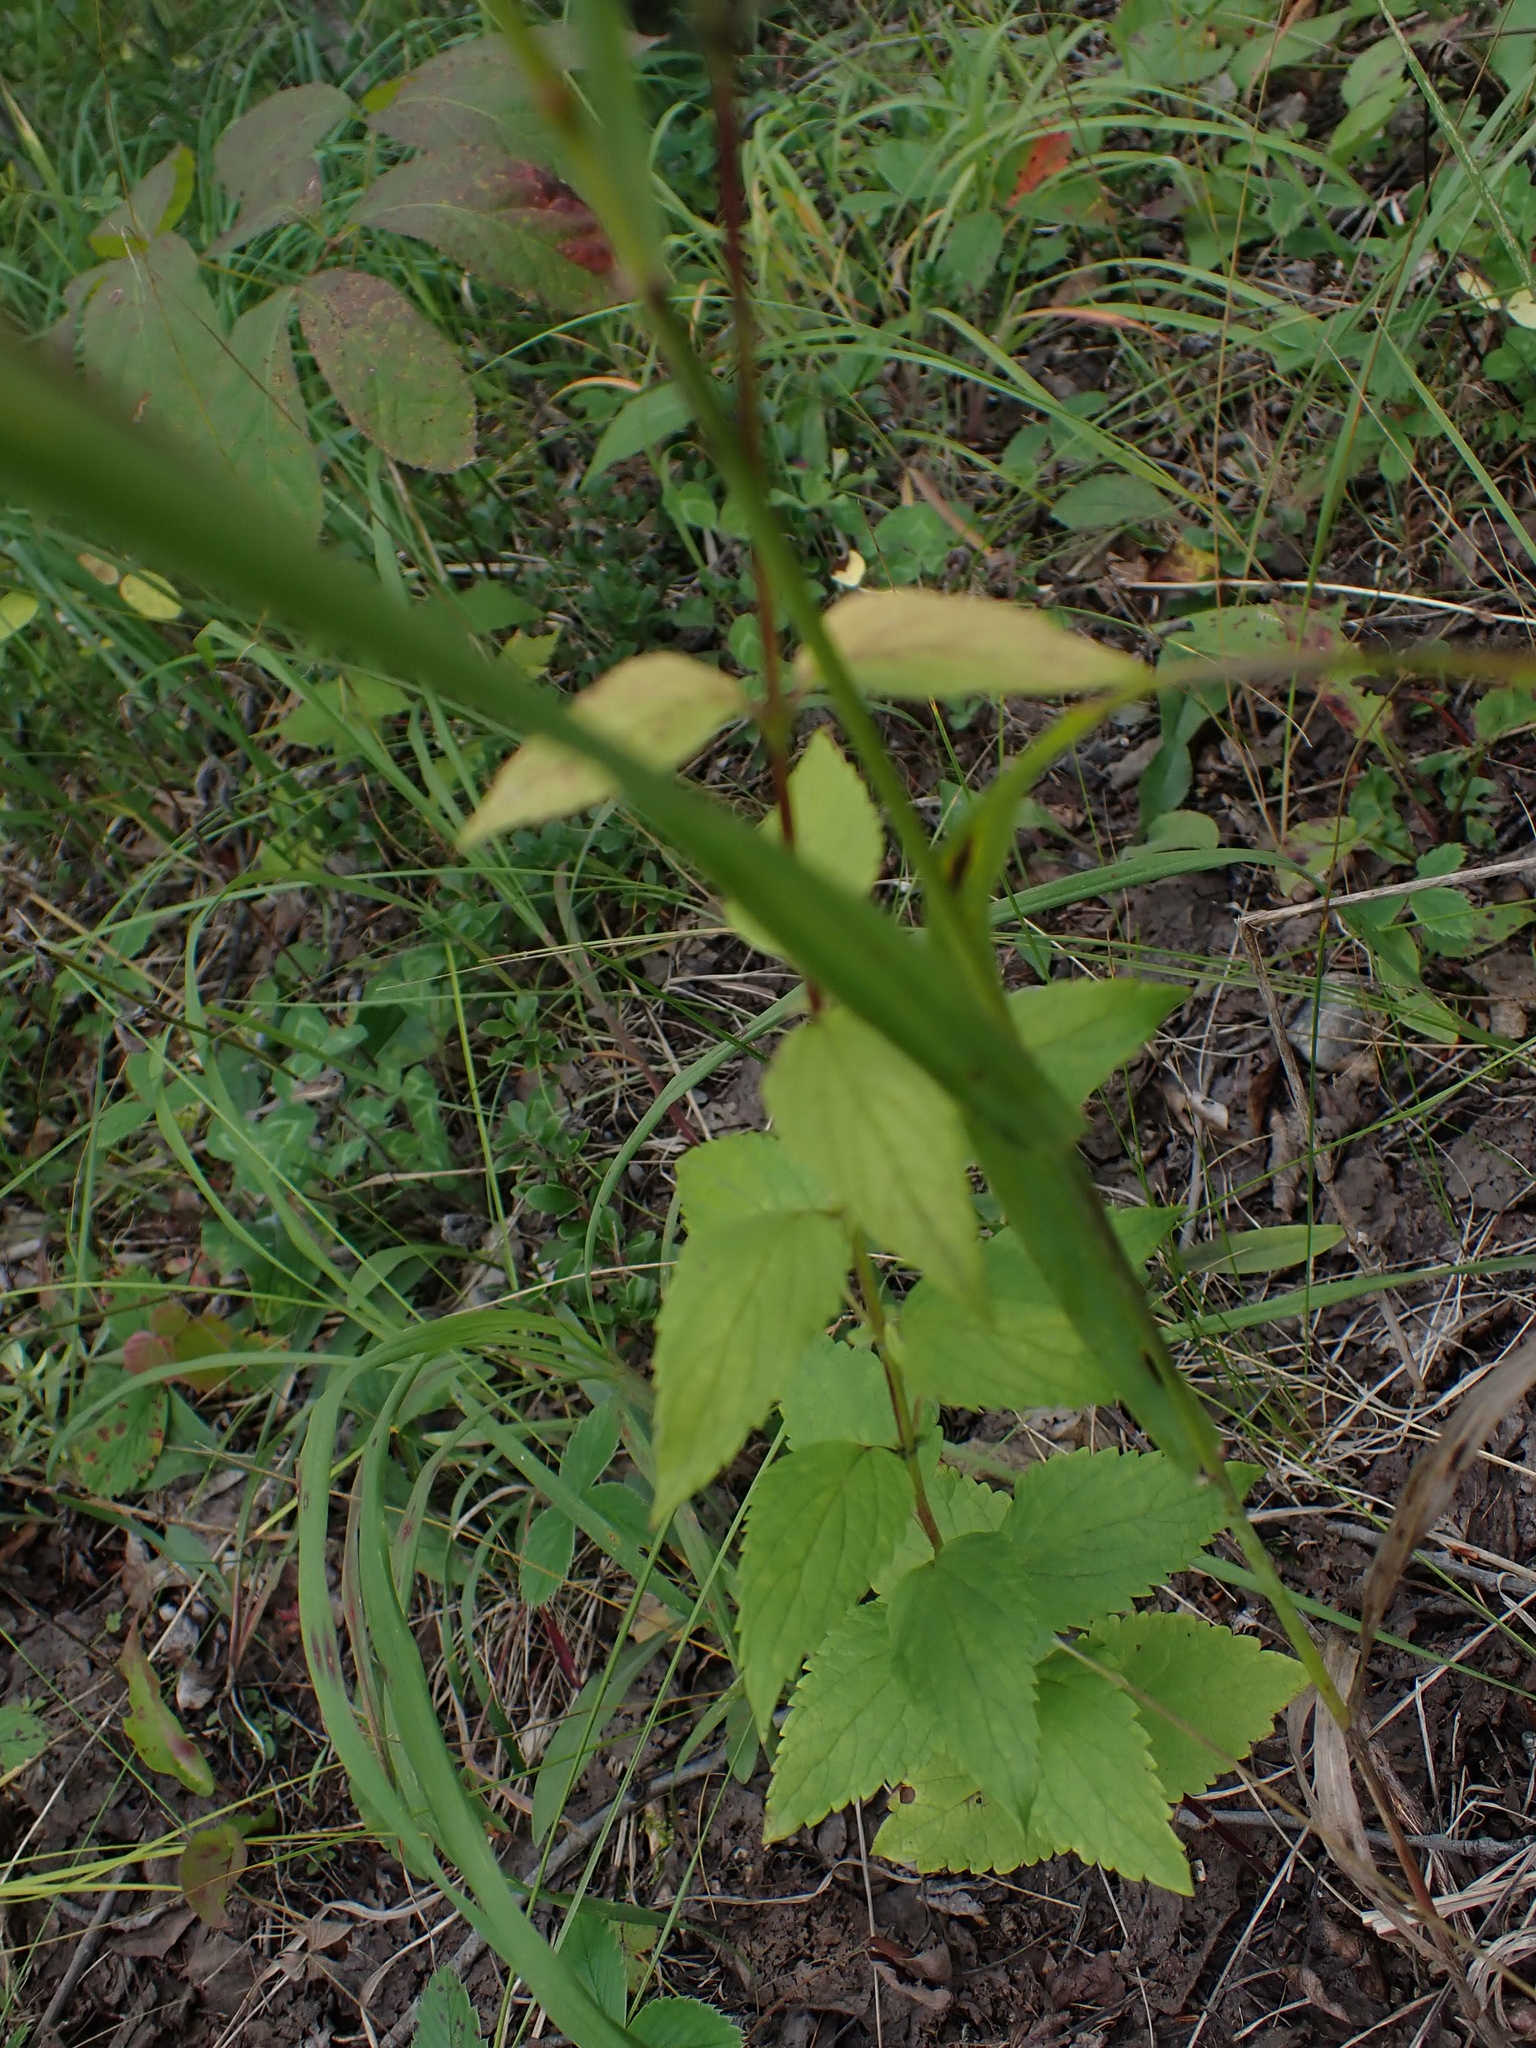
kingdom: Plantae
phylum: Tracheophyta
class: Magnoliopsida
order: Lamiales
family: Lamiaceae
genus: Agastache
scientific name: Agastache foeniculum
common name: Anise hyssop
